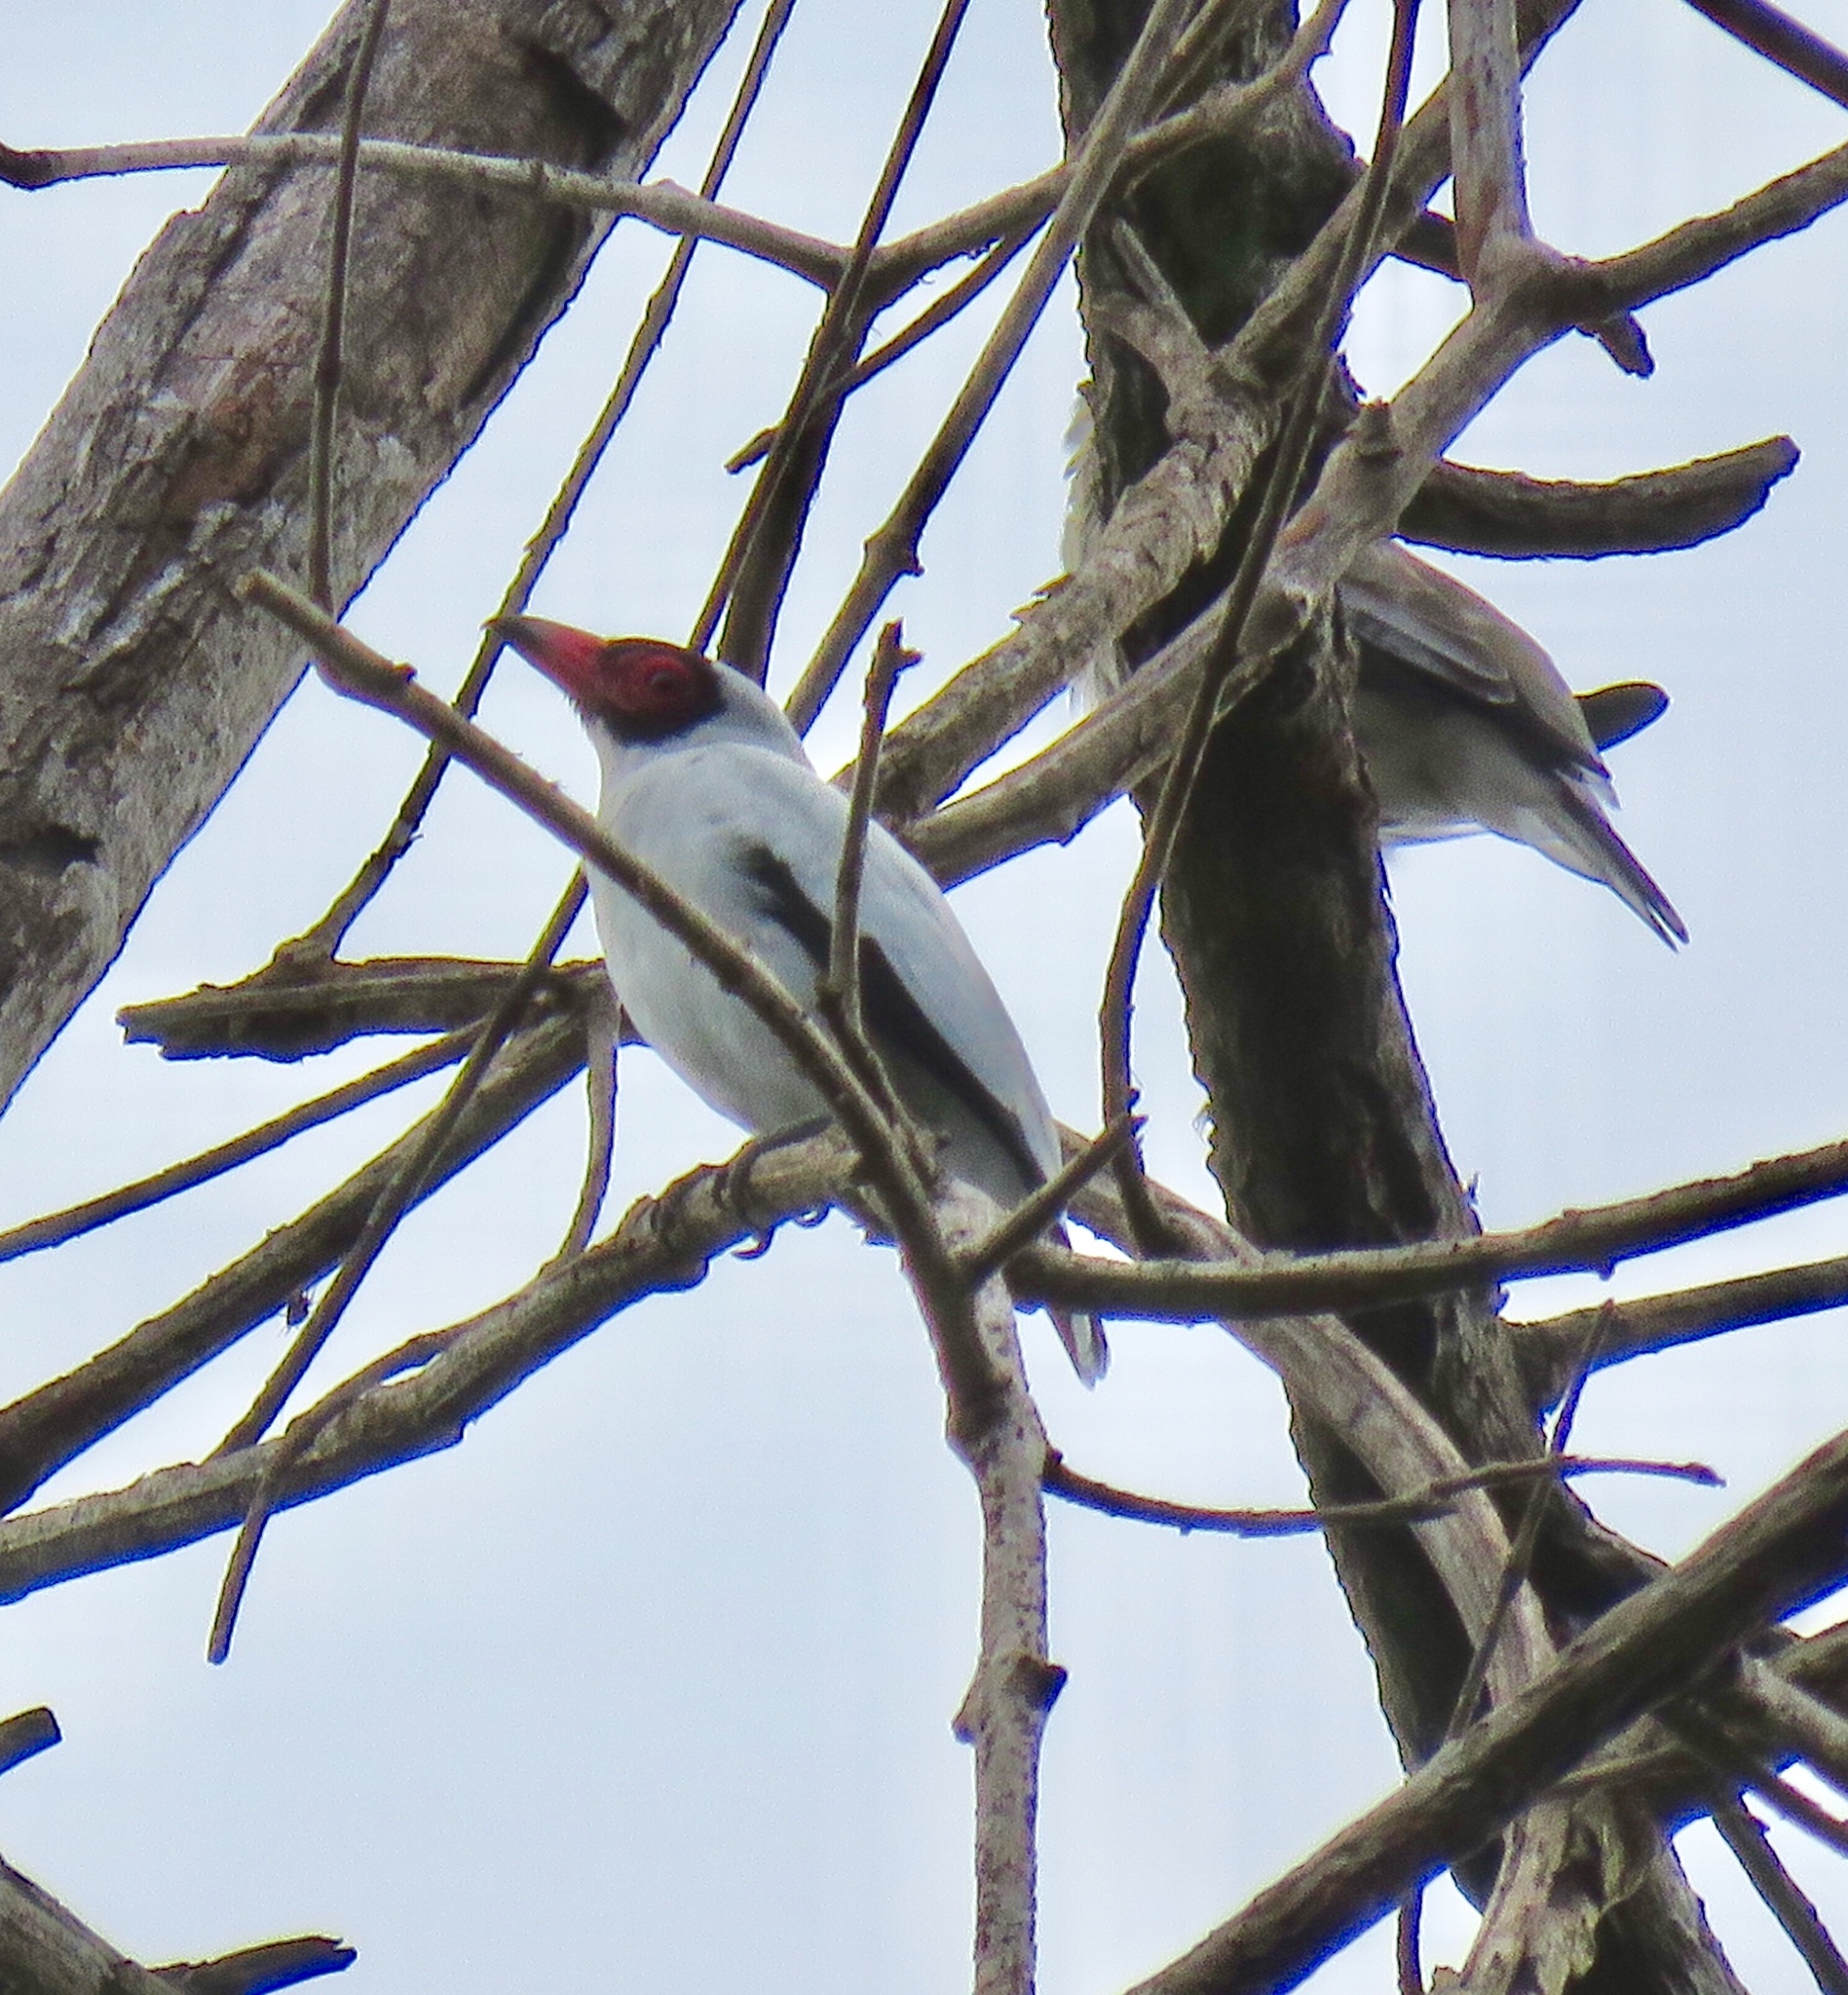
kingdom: Animalia
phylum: Chordata
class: Aves
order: Passeriformes
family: Cotingidae
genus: Tityra
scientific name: Tityra semifasciata
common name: Masked tityra
